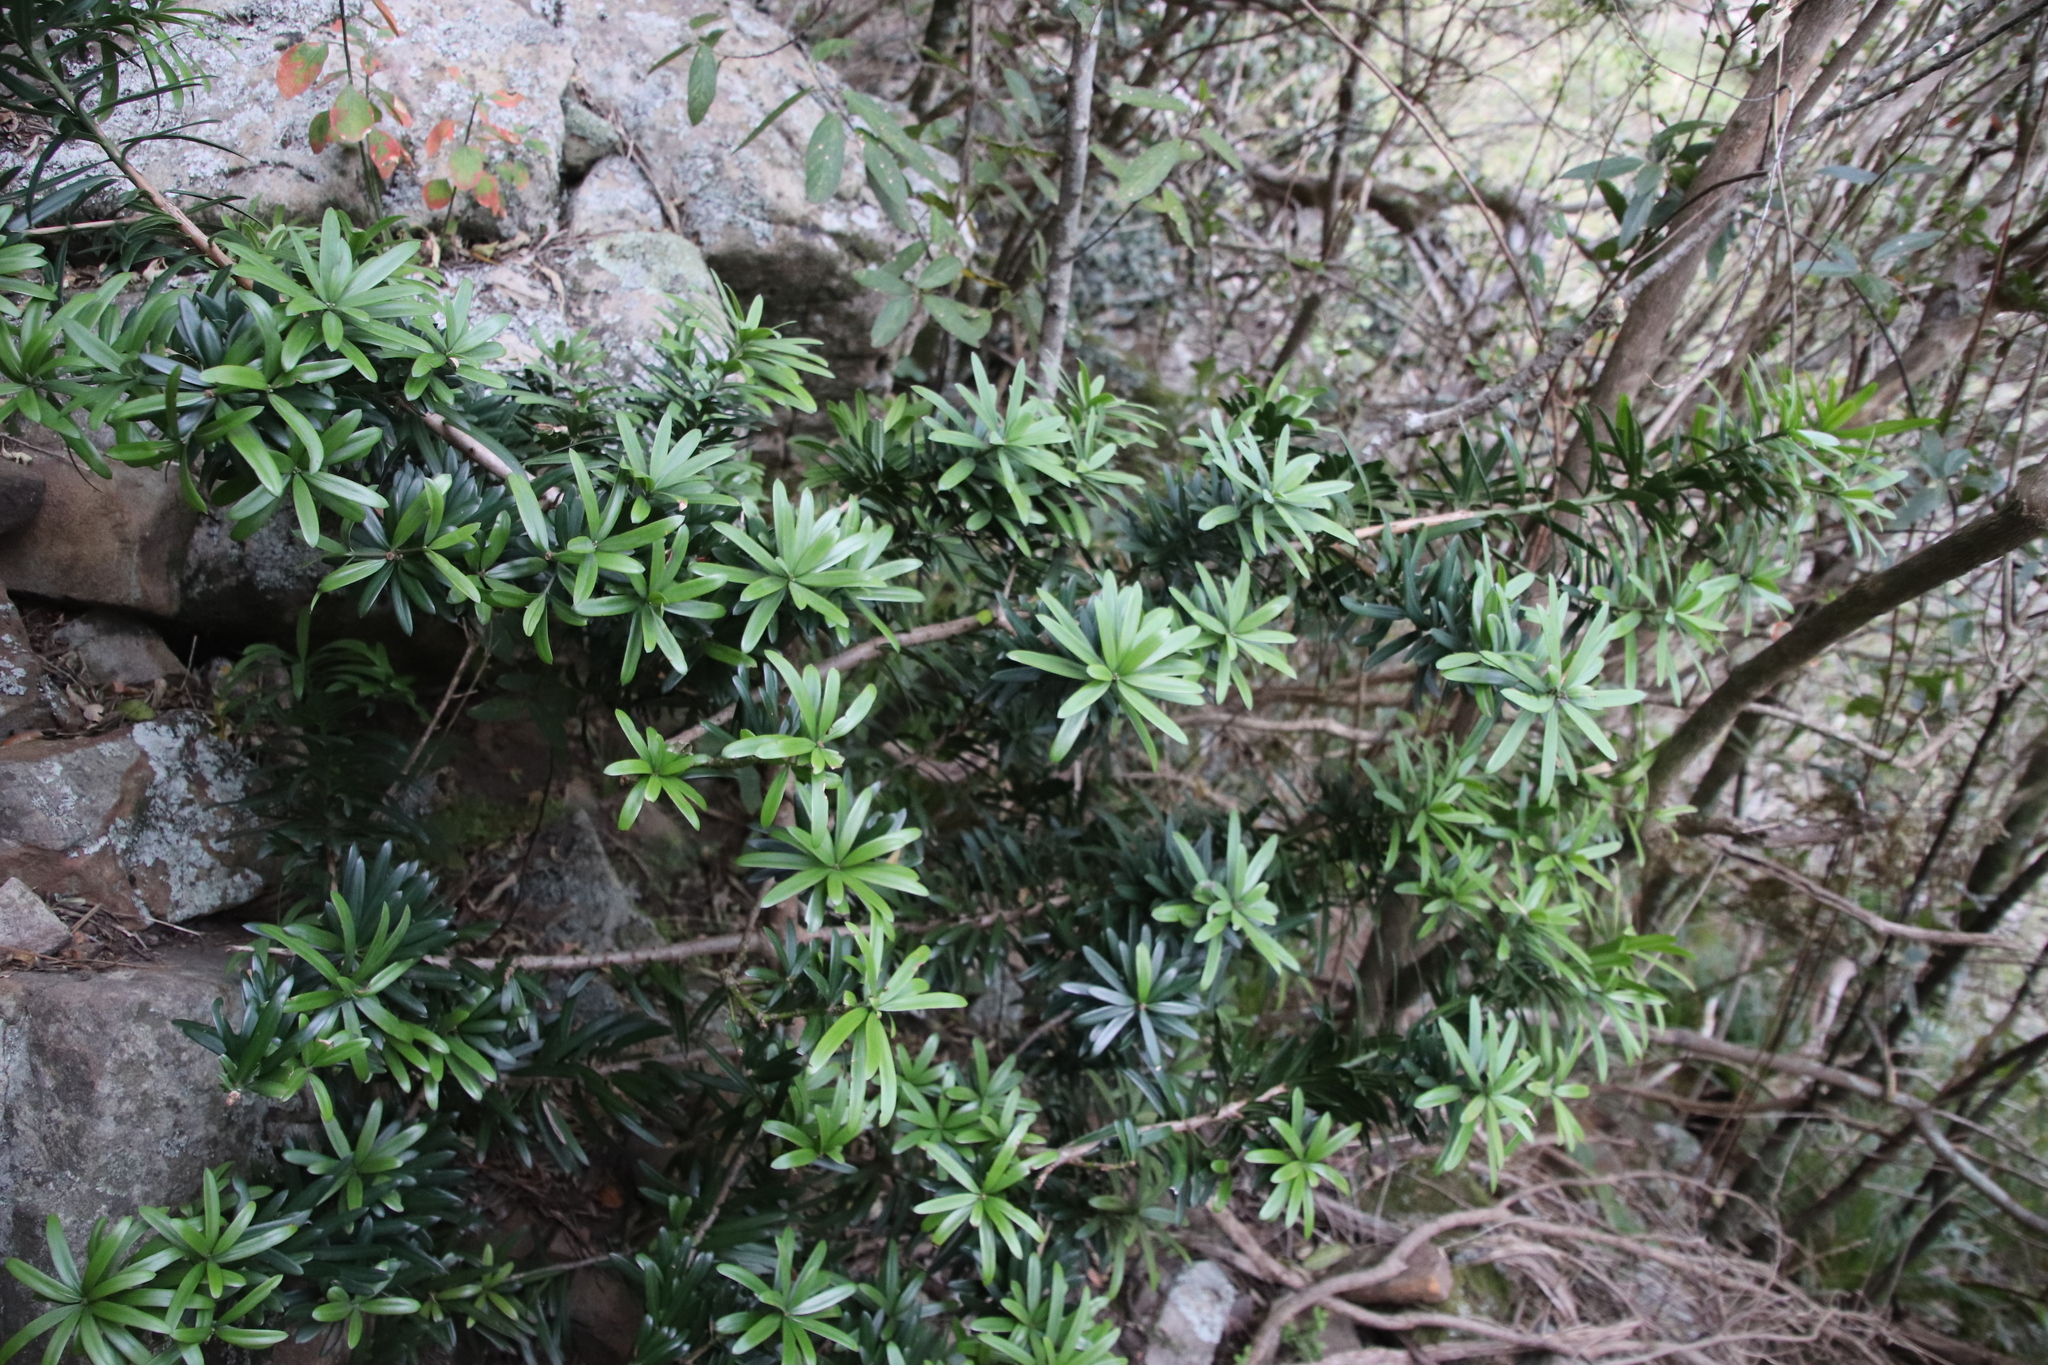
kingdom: Plantae
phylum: Tracheophyta
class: Pinopsida
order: Pinales
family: Podocarpaceae
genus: Podocarpus
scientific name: Podocarpus latifolius
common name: True yellowwood
